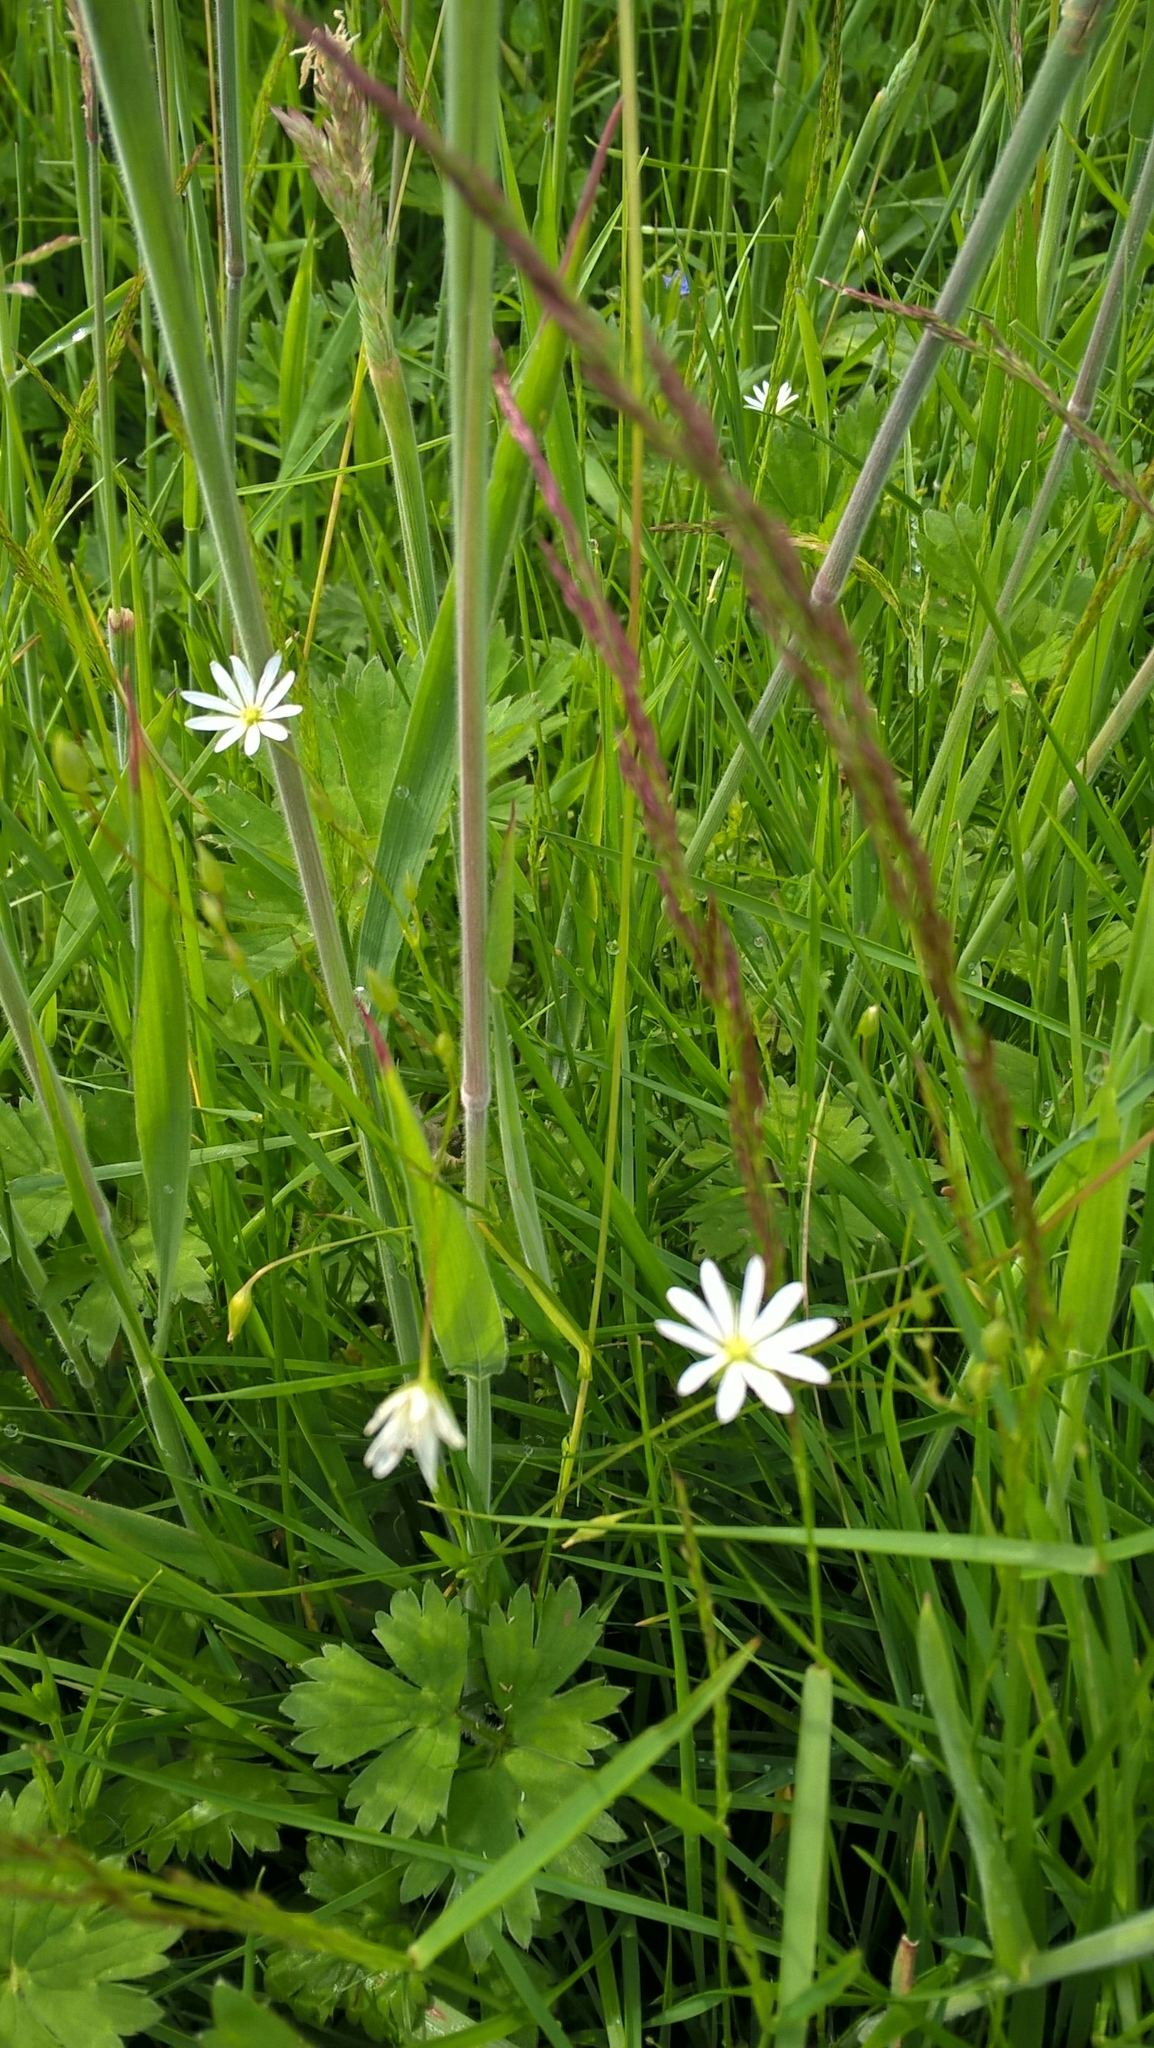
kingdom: Plantae
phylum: Tracheophyta
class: Magnoliopsida
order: Caryophyllales
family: Caryophyllaceae
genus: Stellaria
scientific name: Stellaria graminea
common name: Grass-like starwort
